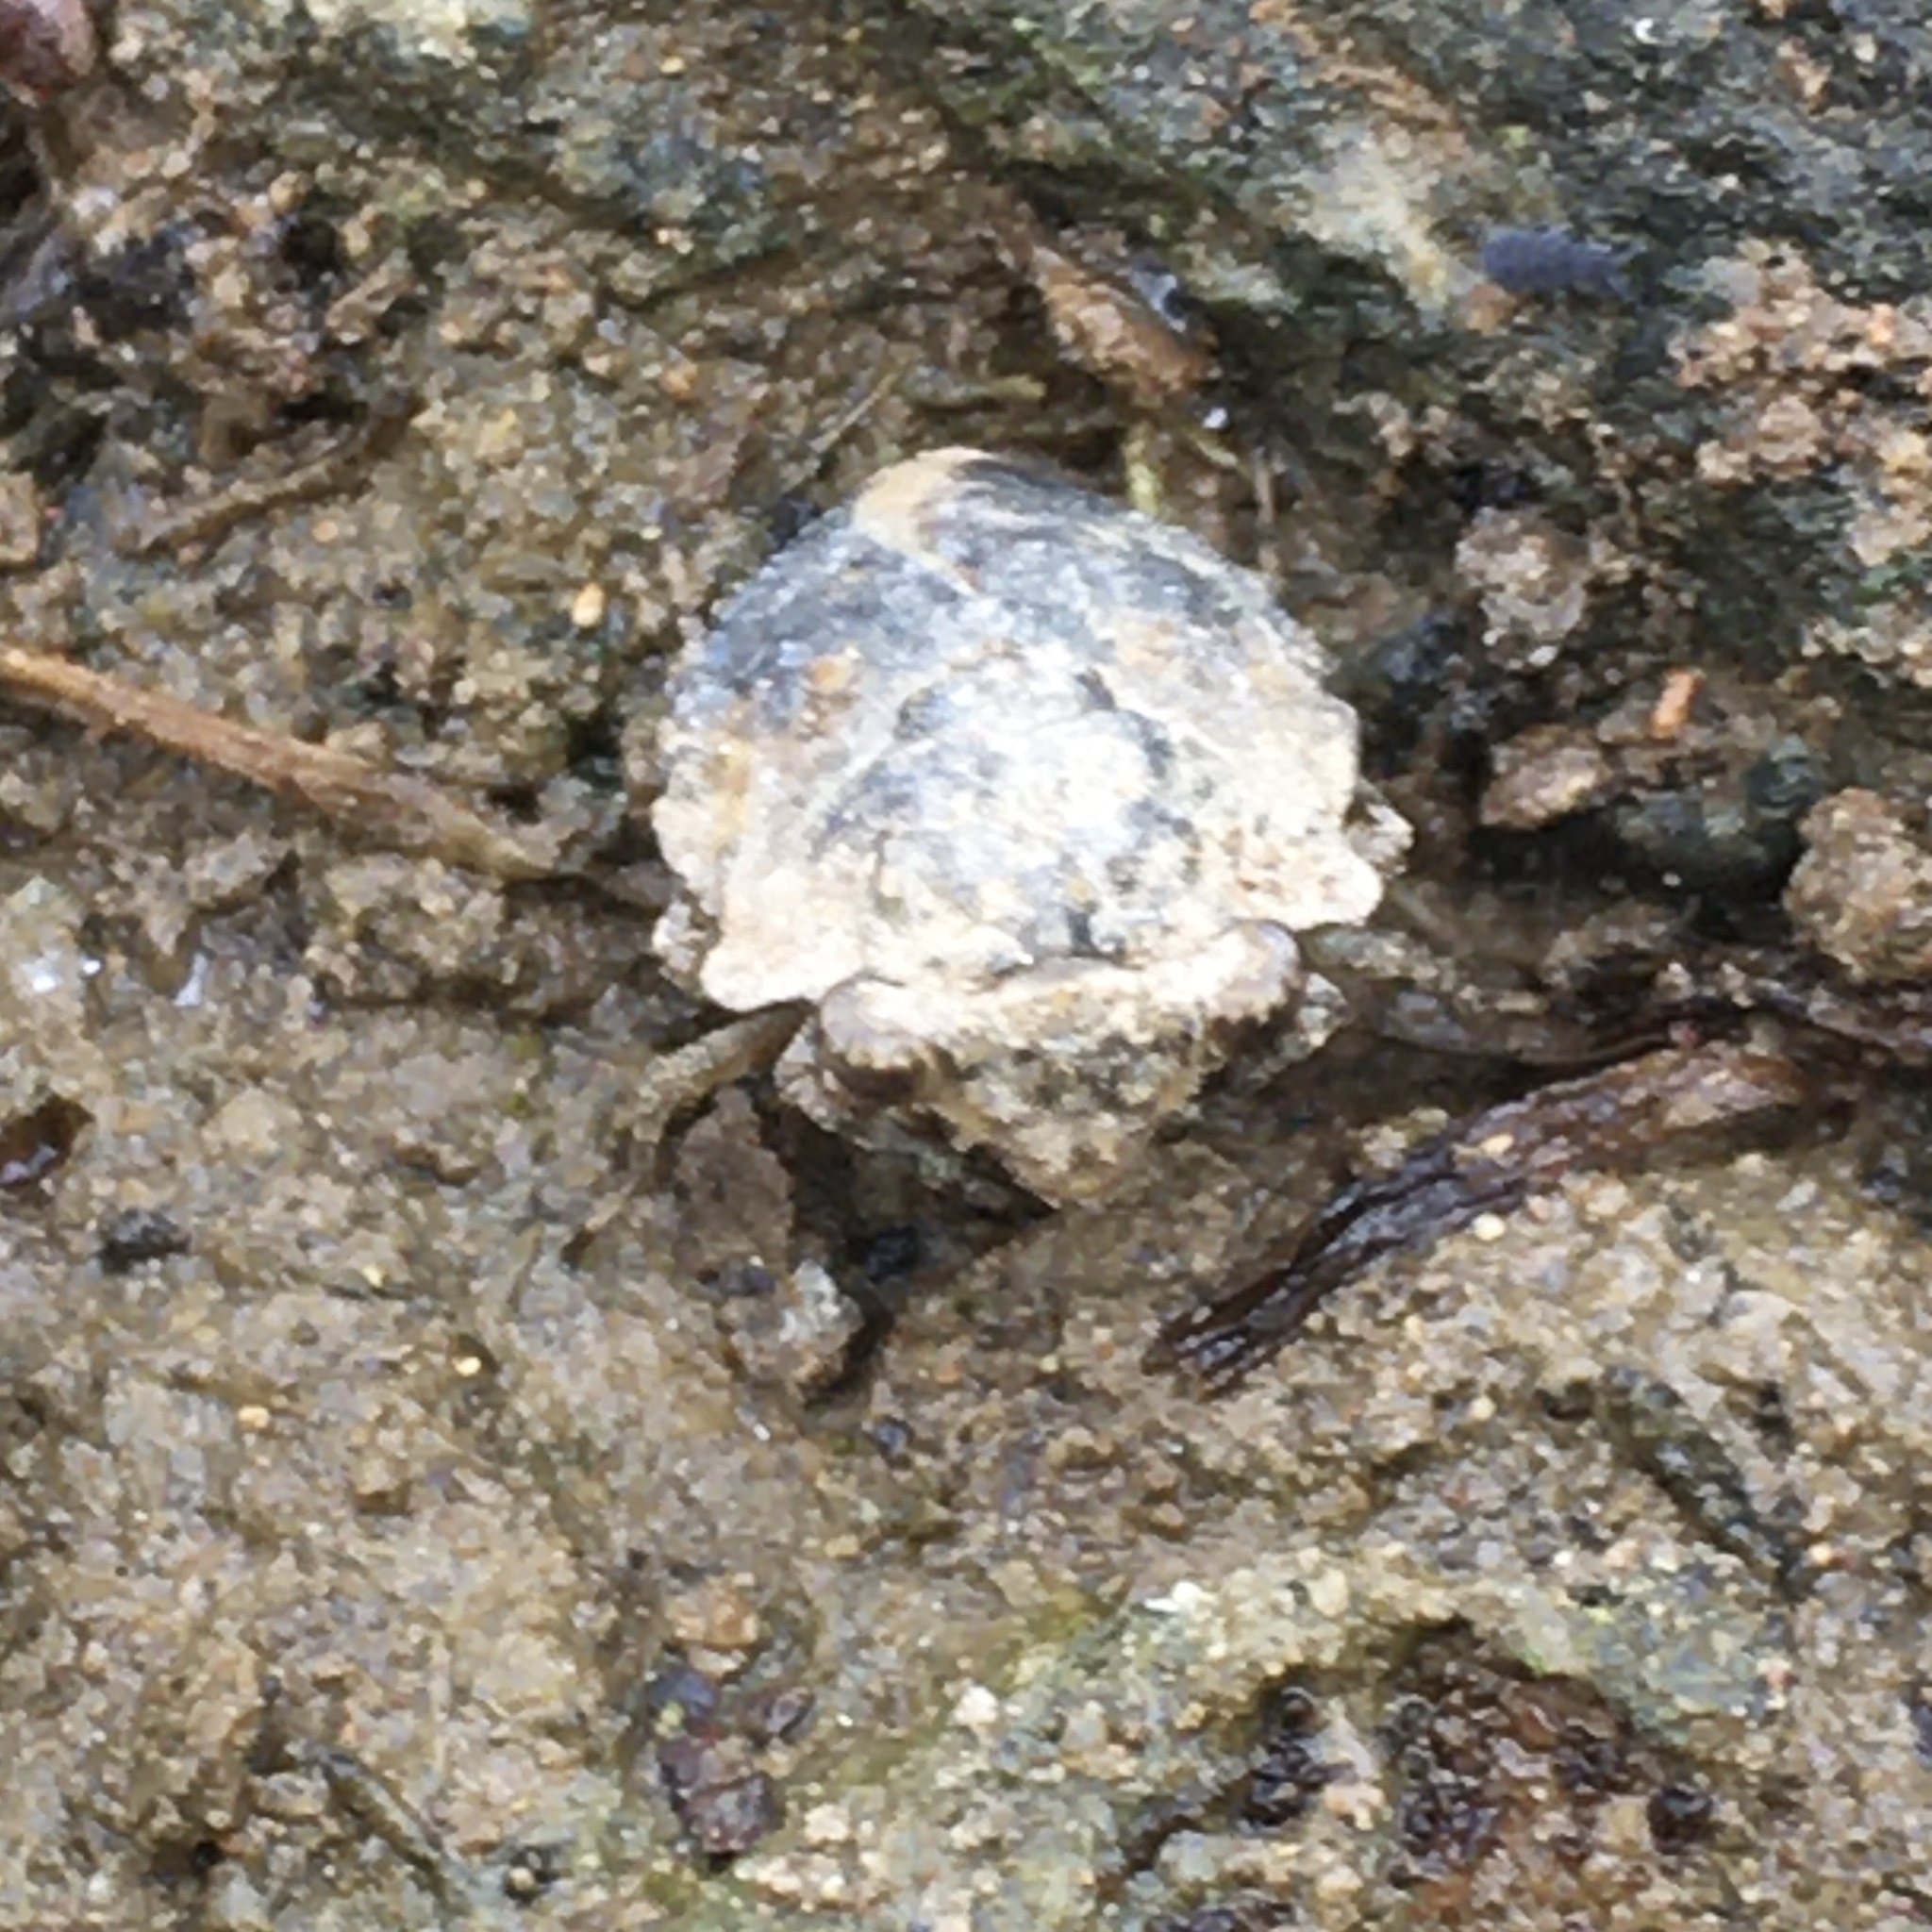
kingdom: Animalia
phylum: Arthropoda
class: Insecta
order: Hemiptera
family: Gelastocoridae
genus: Gelastocoris
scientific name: Gelastocoris oculatus
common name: Toad bug
